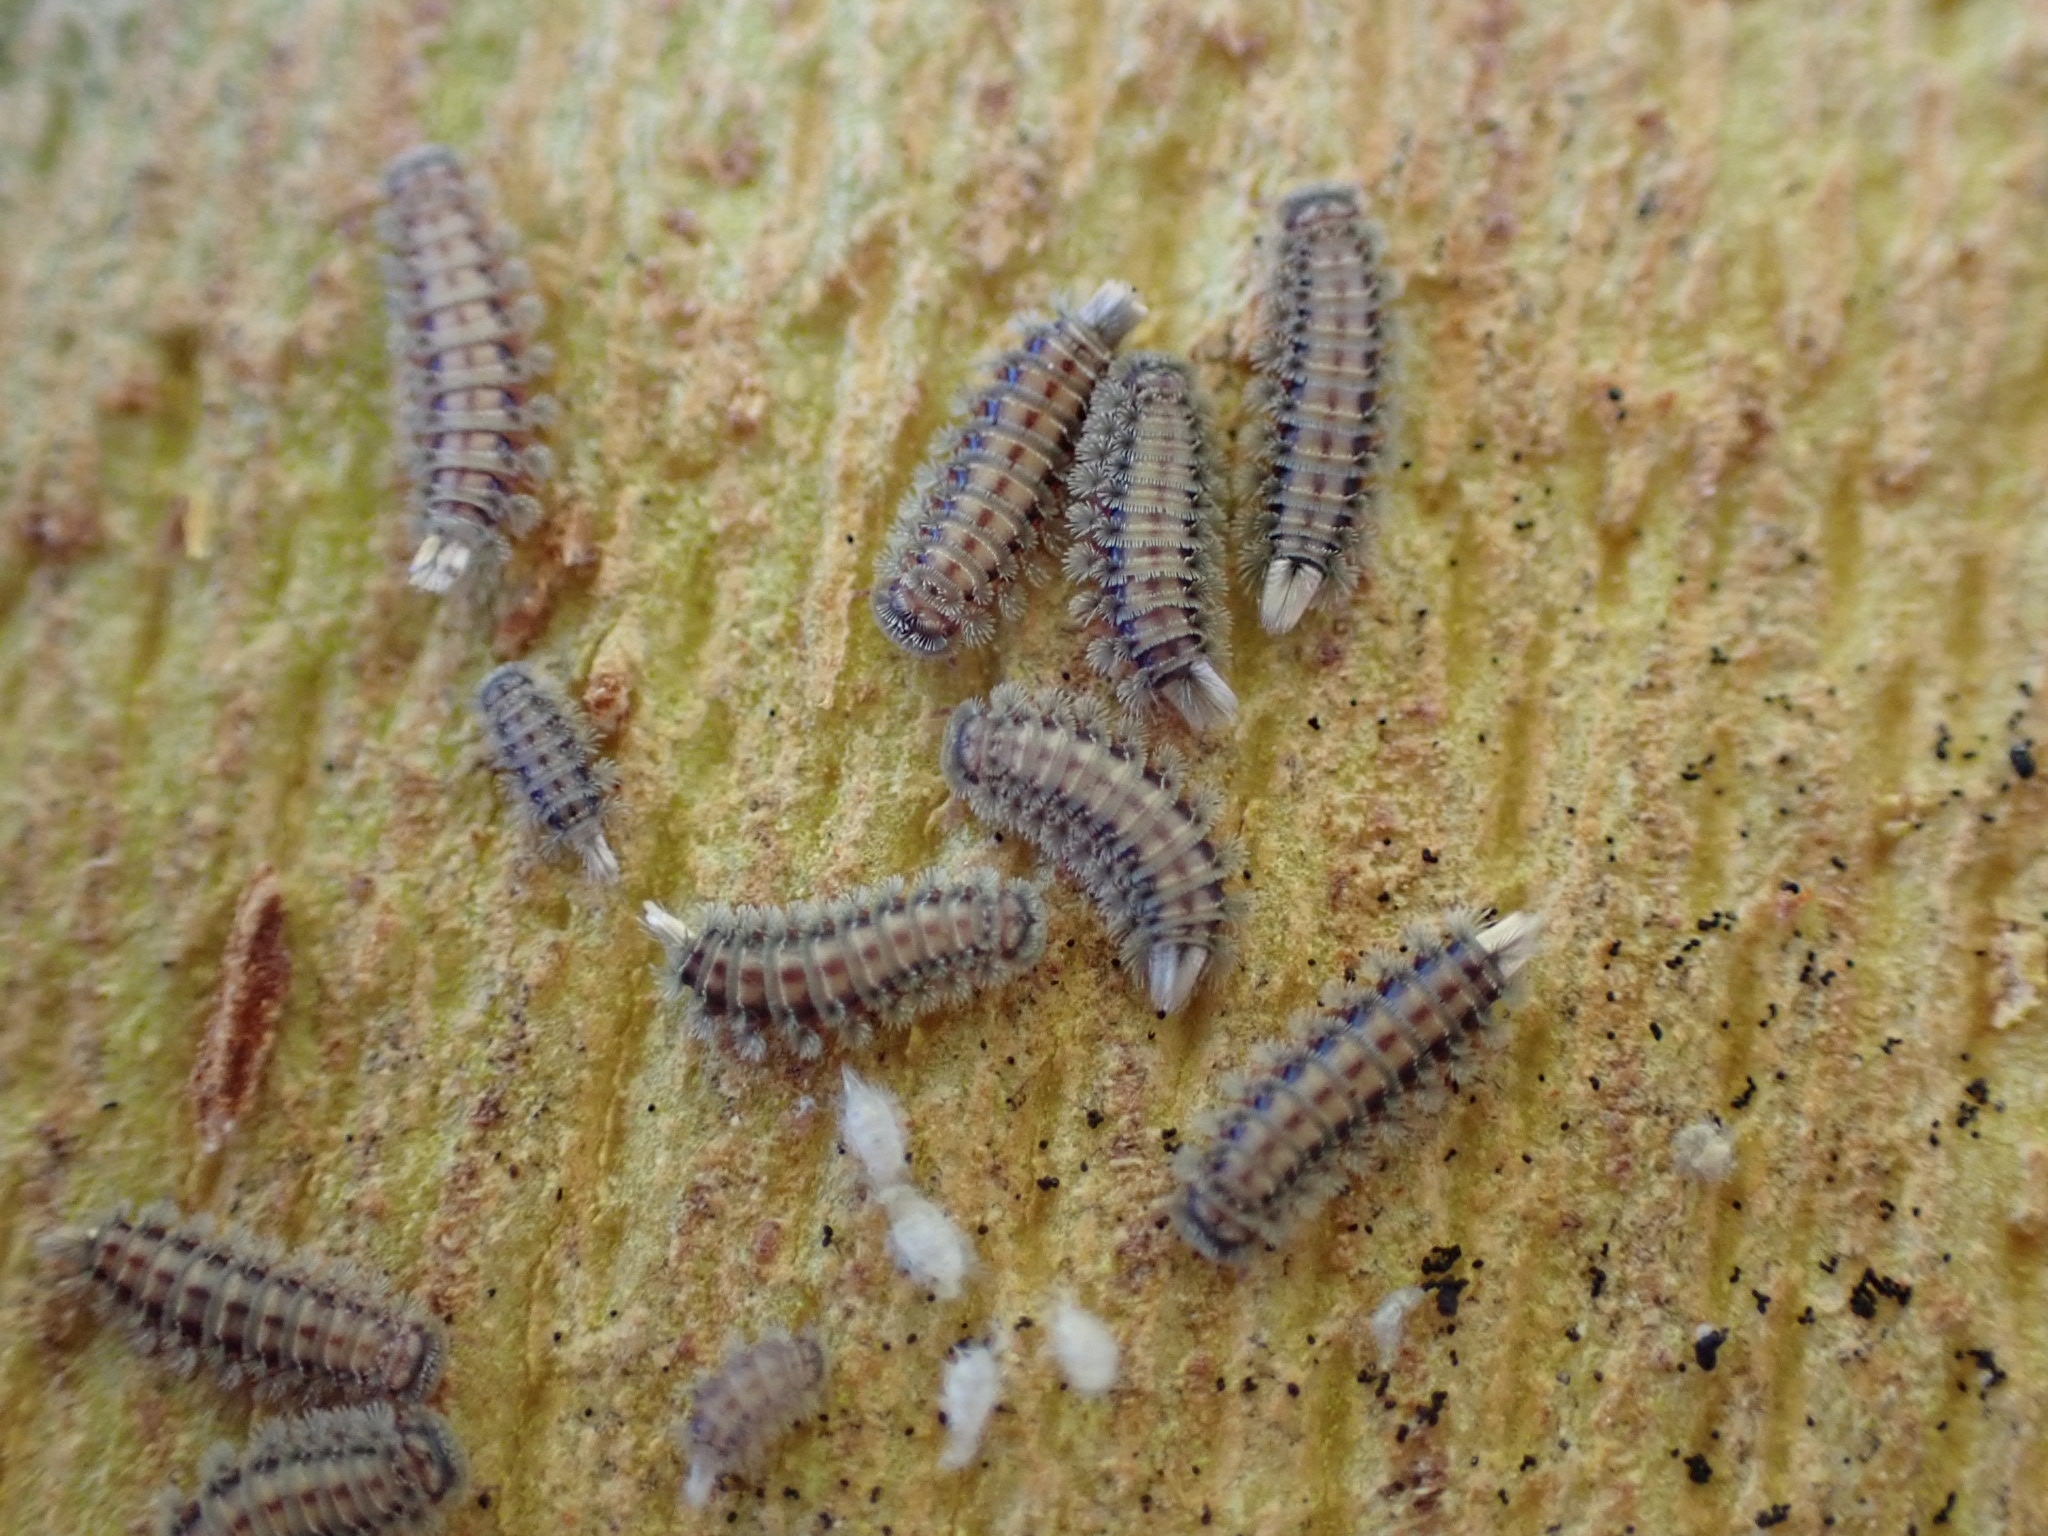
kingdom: Animalia
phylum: Arthropoda
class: Diplopoda
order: Polyxenida
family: Polyxenidae
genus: Polyxenus
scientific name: Polyxenus lagurus
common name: Bristly millipede
